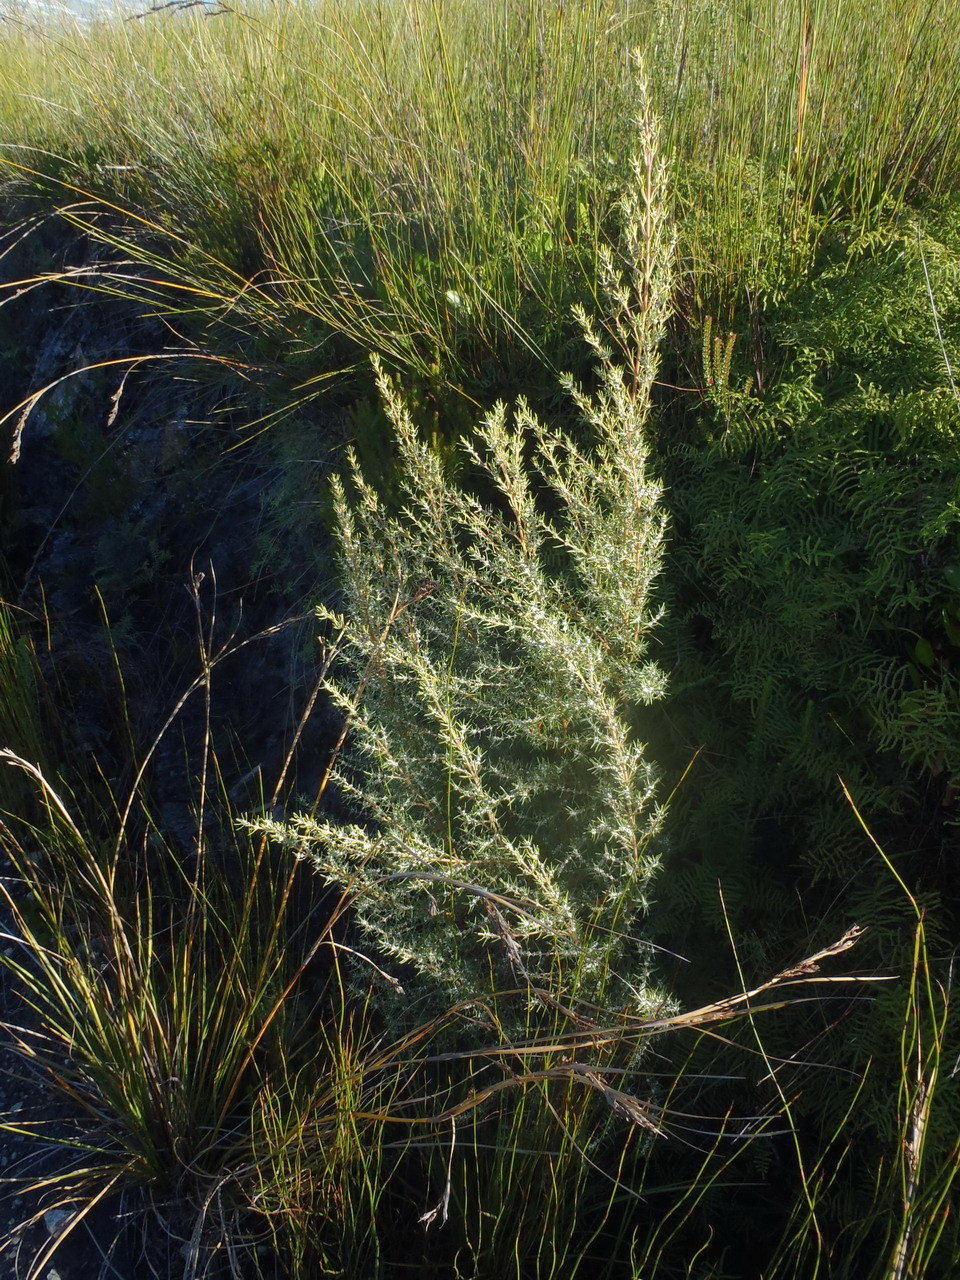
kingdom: Plantae
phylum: Tracheophyta
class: Magnoliopsida
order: Cornales
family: Grubbiaceae
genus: Grubbia
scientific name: Grubbia rosmarinifolia
